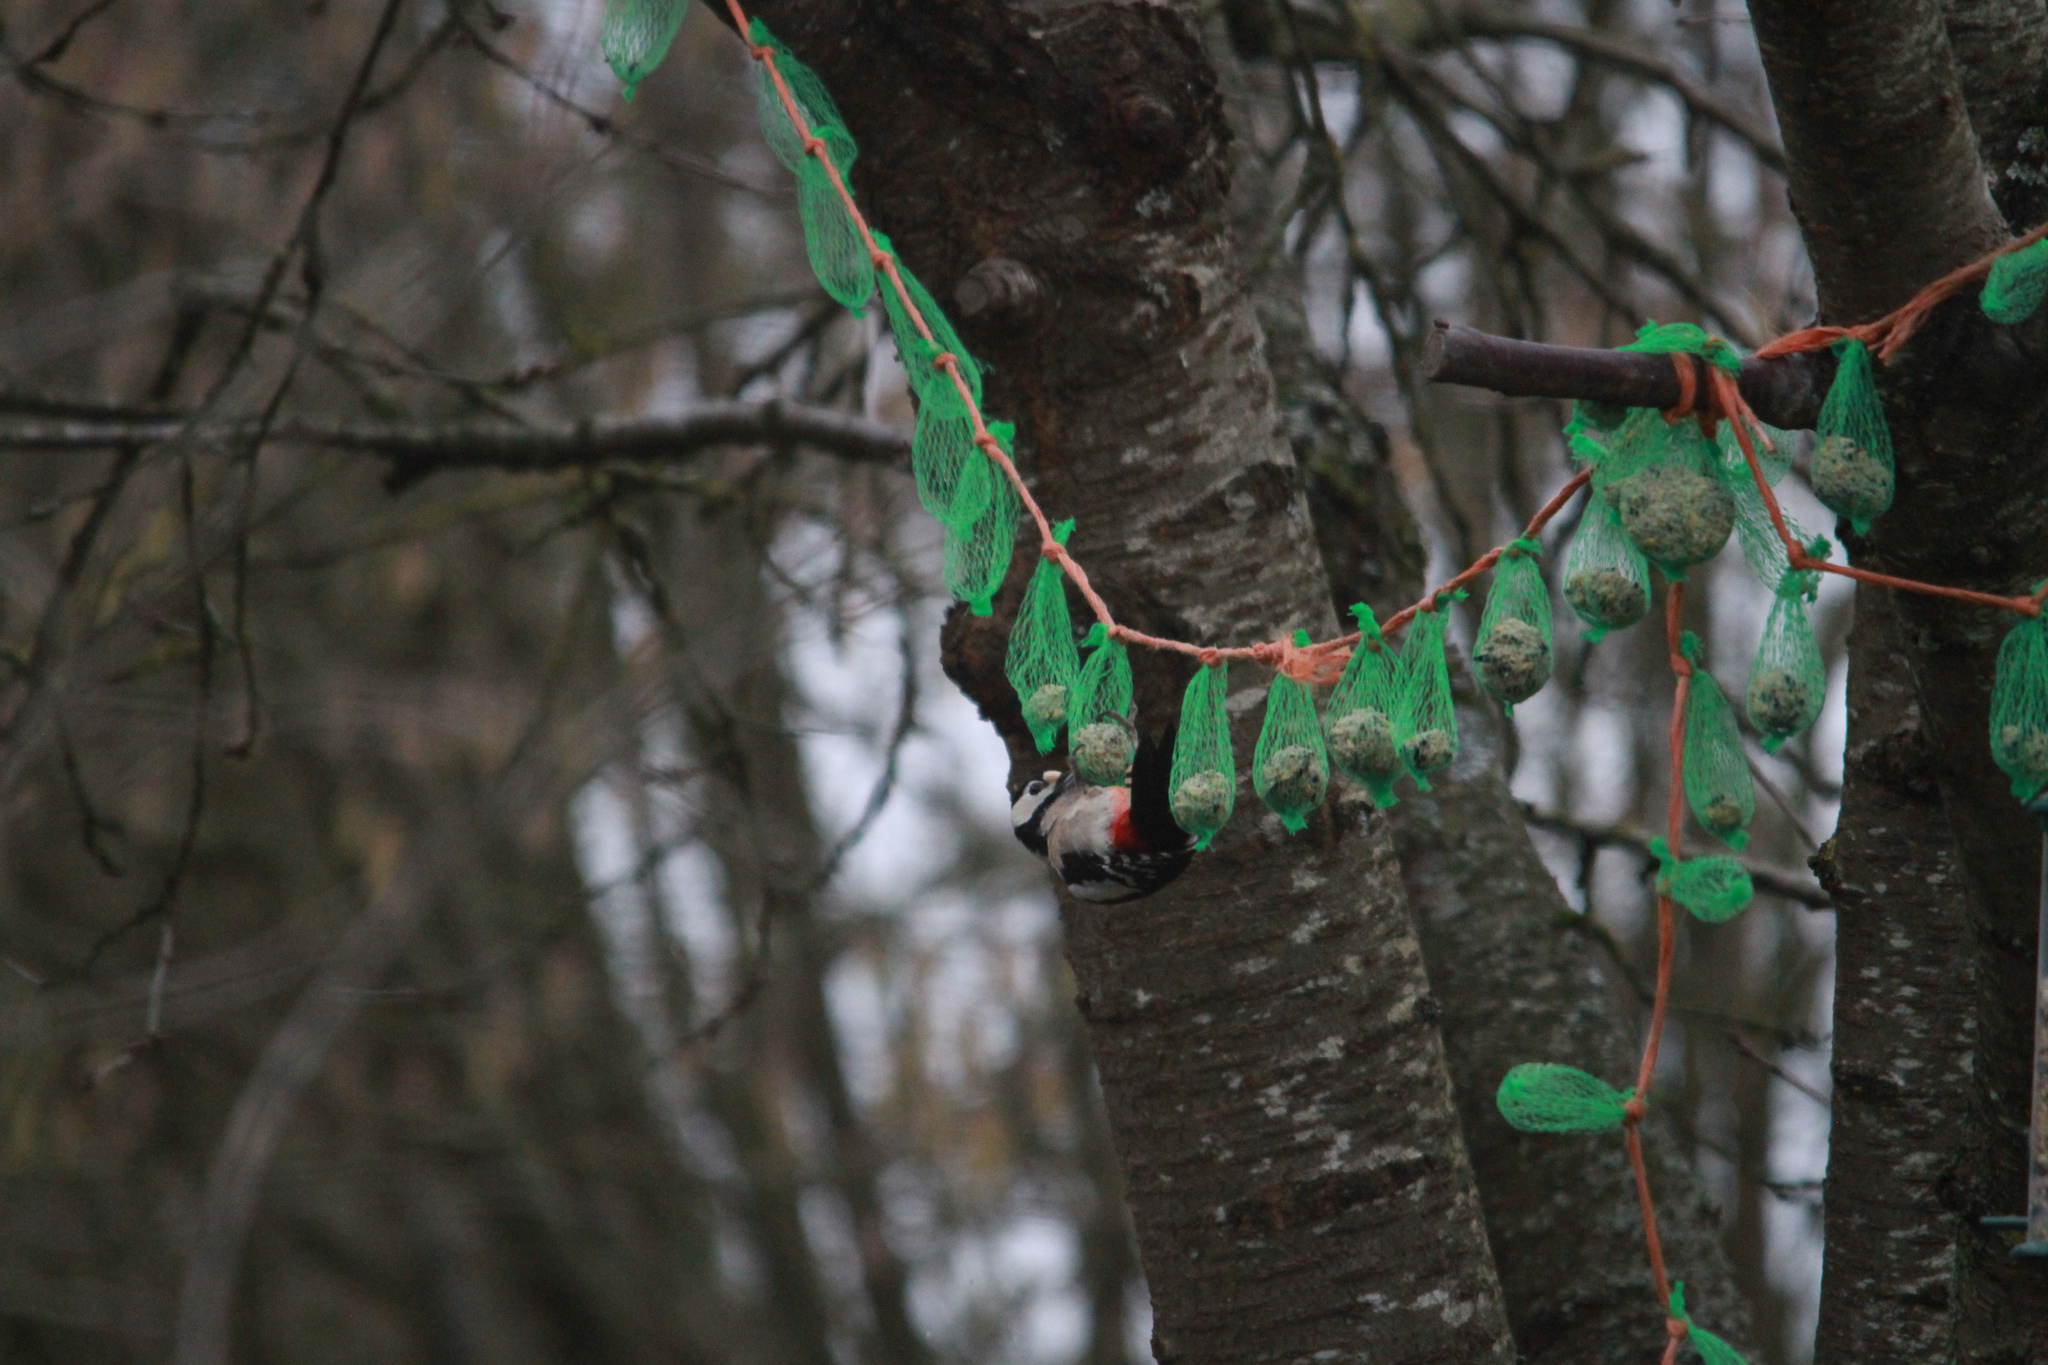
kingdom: Animalia
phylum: Chordata
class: Aves
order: Piciformes
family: Picidae
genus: Dendrocopos
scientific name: Dendrocopos major
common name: Great spotted woodpecker
